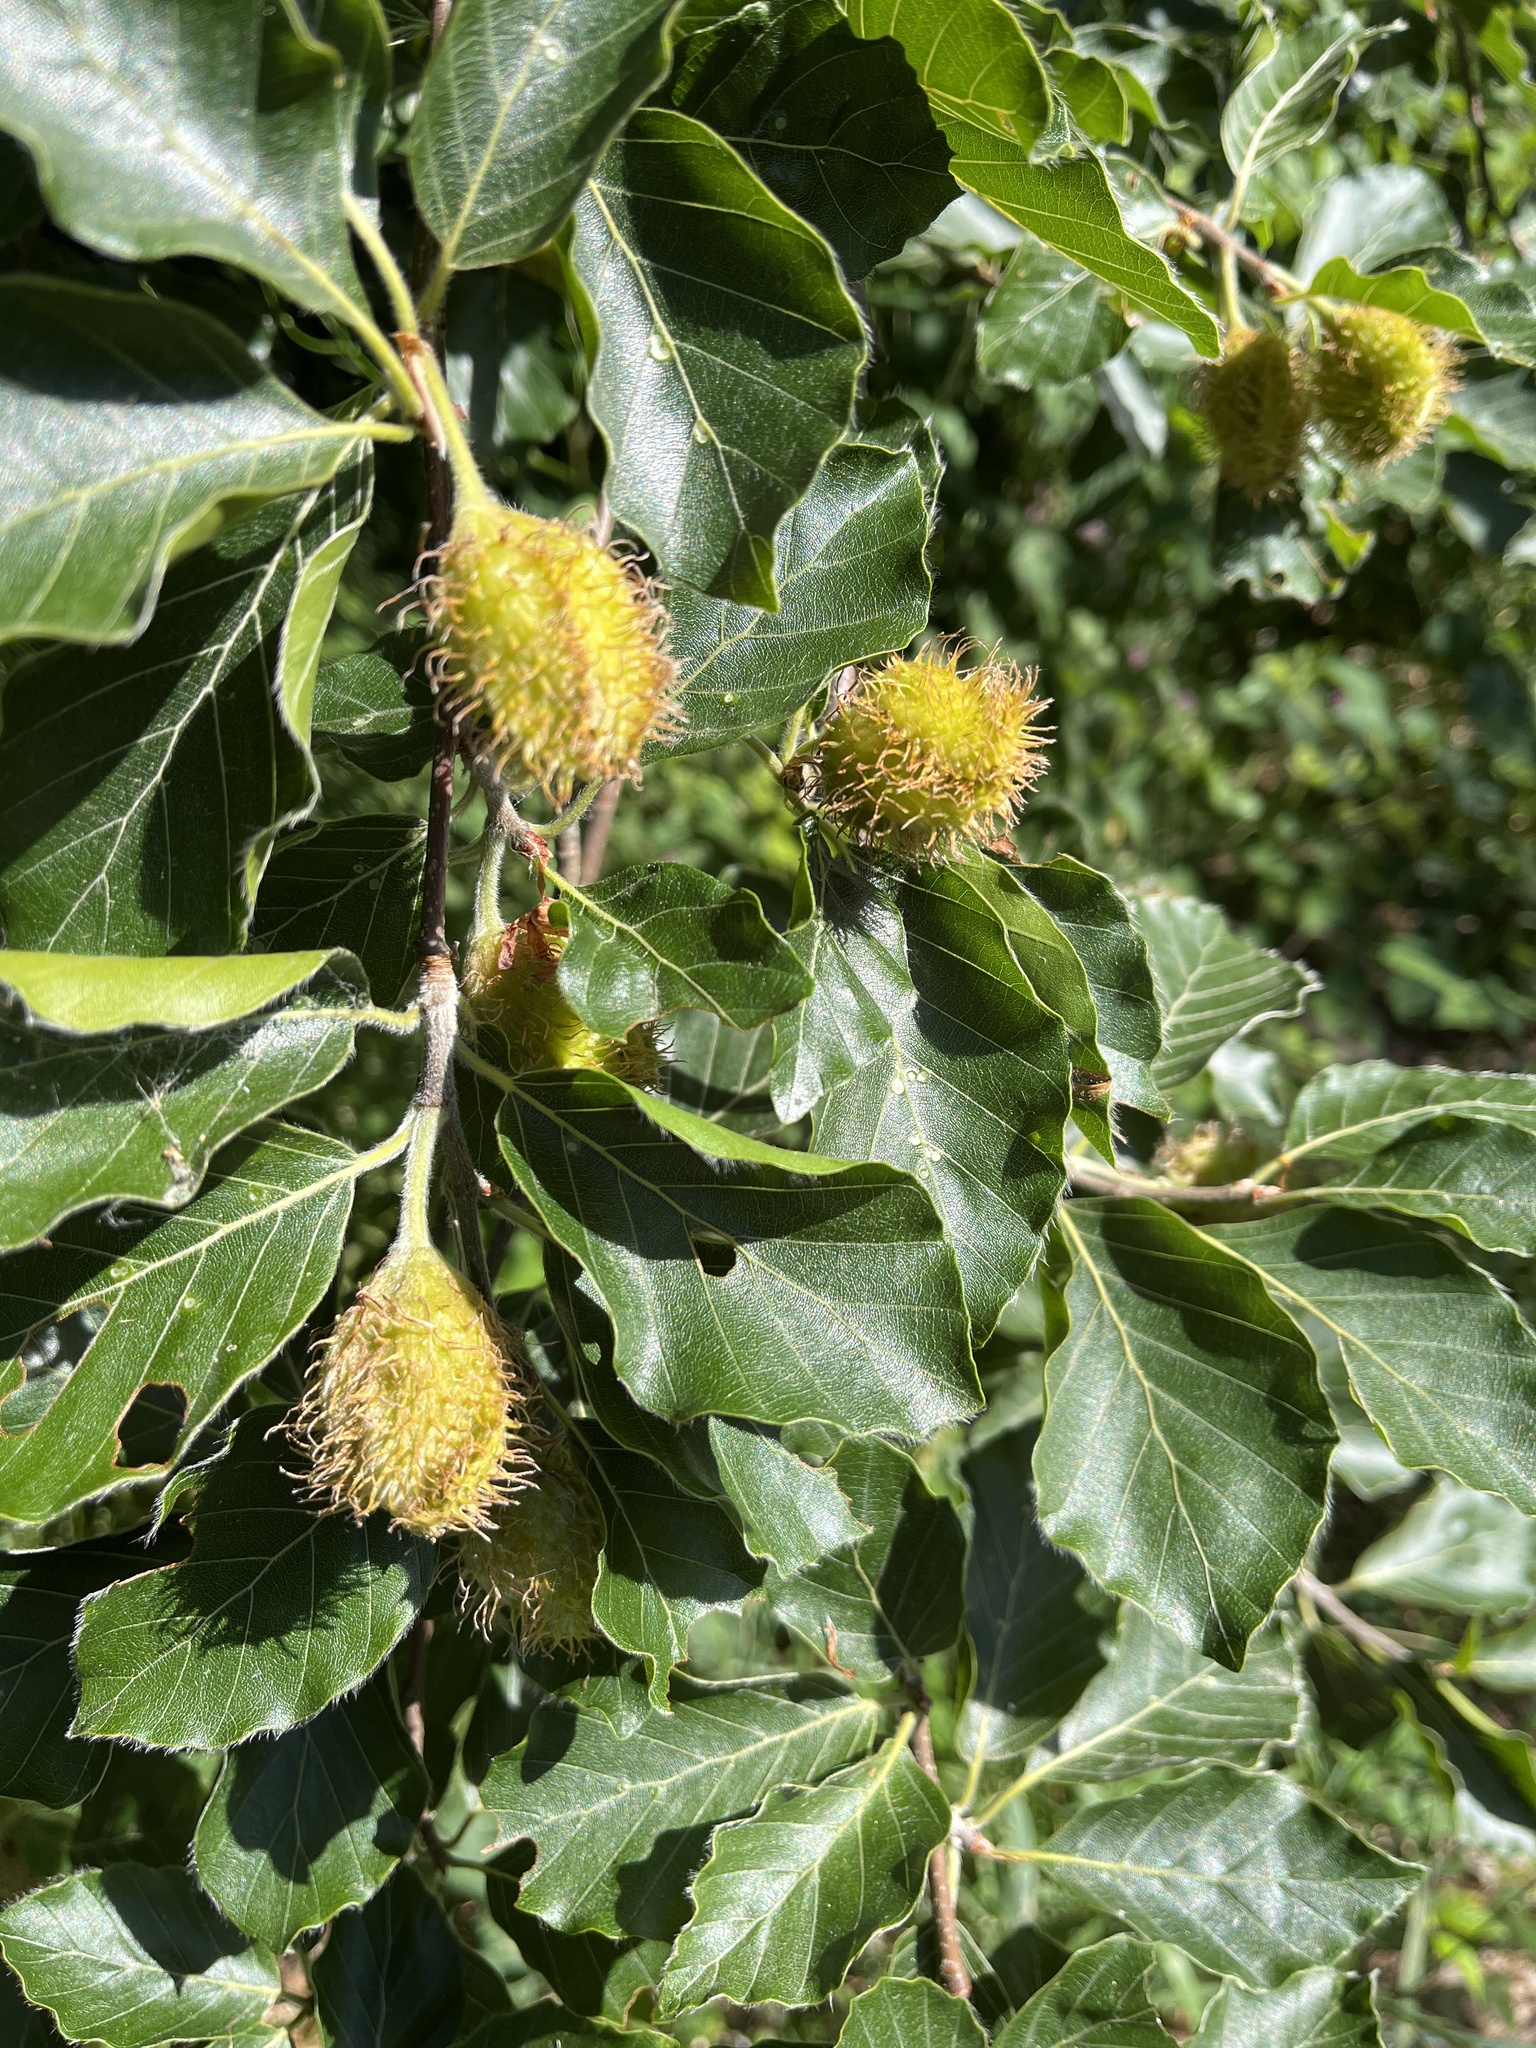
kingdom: Plantae
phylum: Tracheophyta
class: Magnoliopsida
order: Fagales
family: Fagaceae
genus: Fagus
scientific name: Fagus sylvatica
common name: Beech
